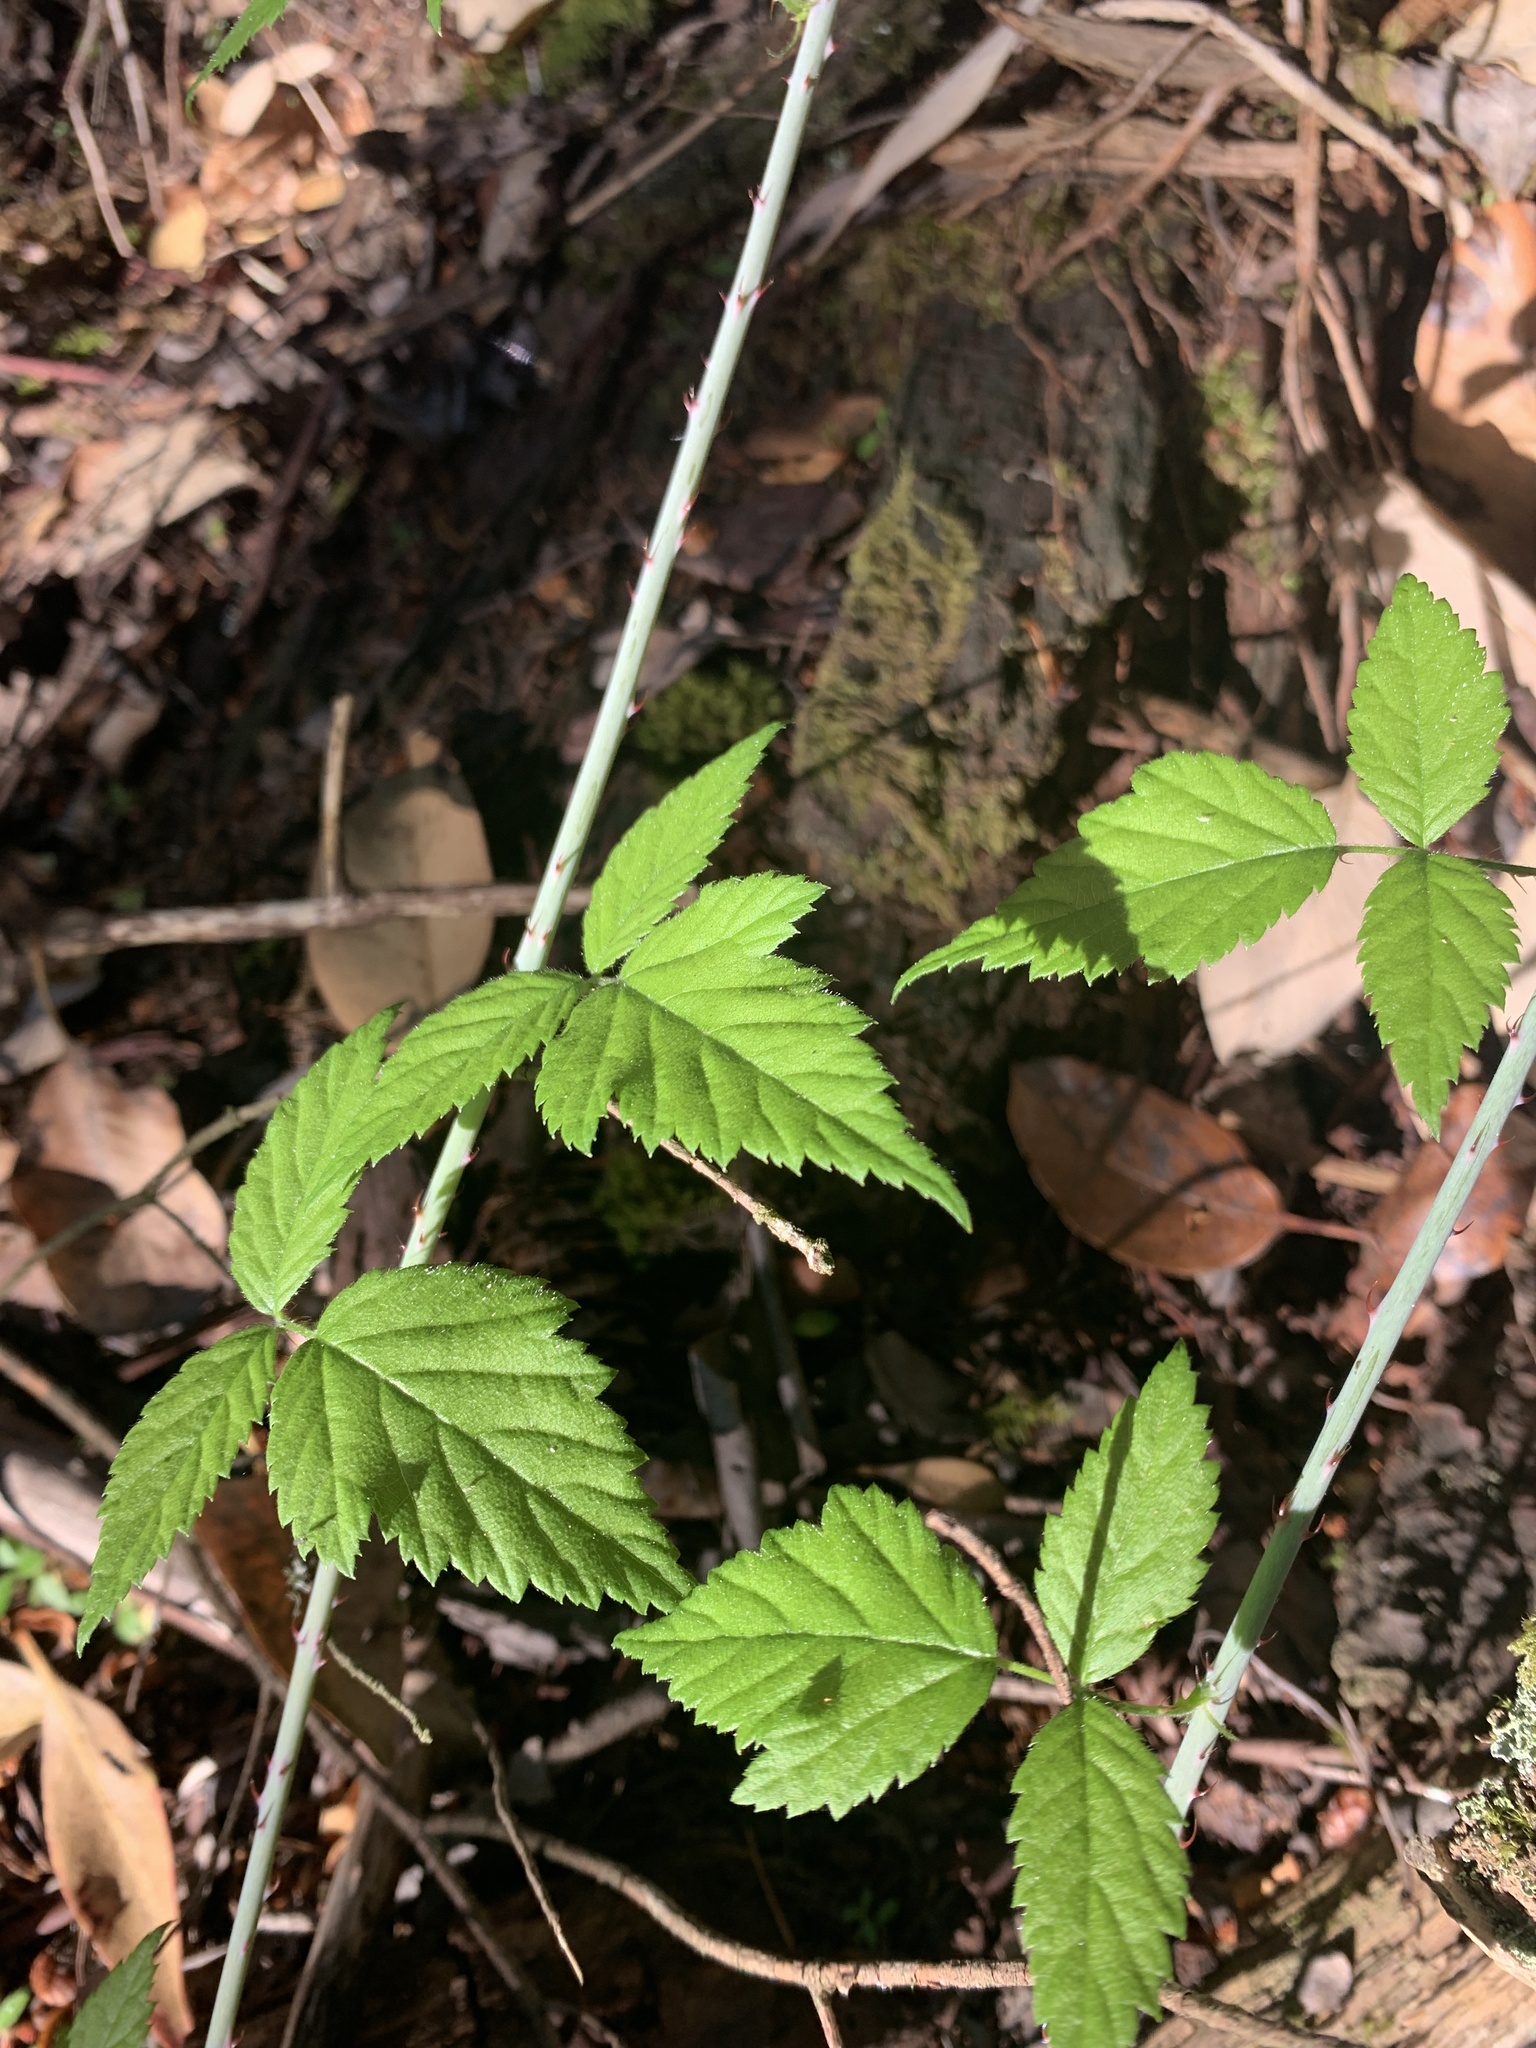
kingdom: Plantae
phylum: Tracheophyta
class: Magnoliopsida
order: Rosales
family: Rosaceae
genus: Rubus
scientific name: Rubus ursinus
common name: Pacific blackberry
